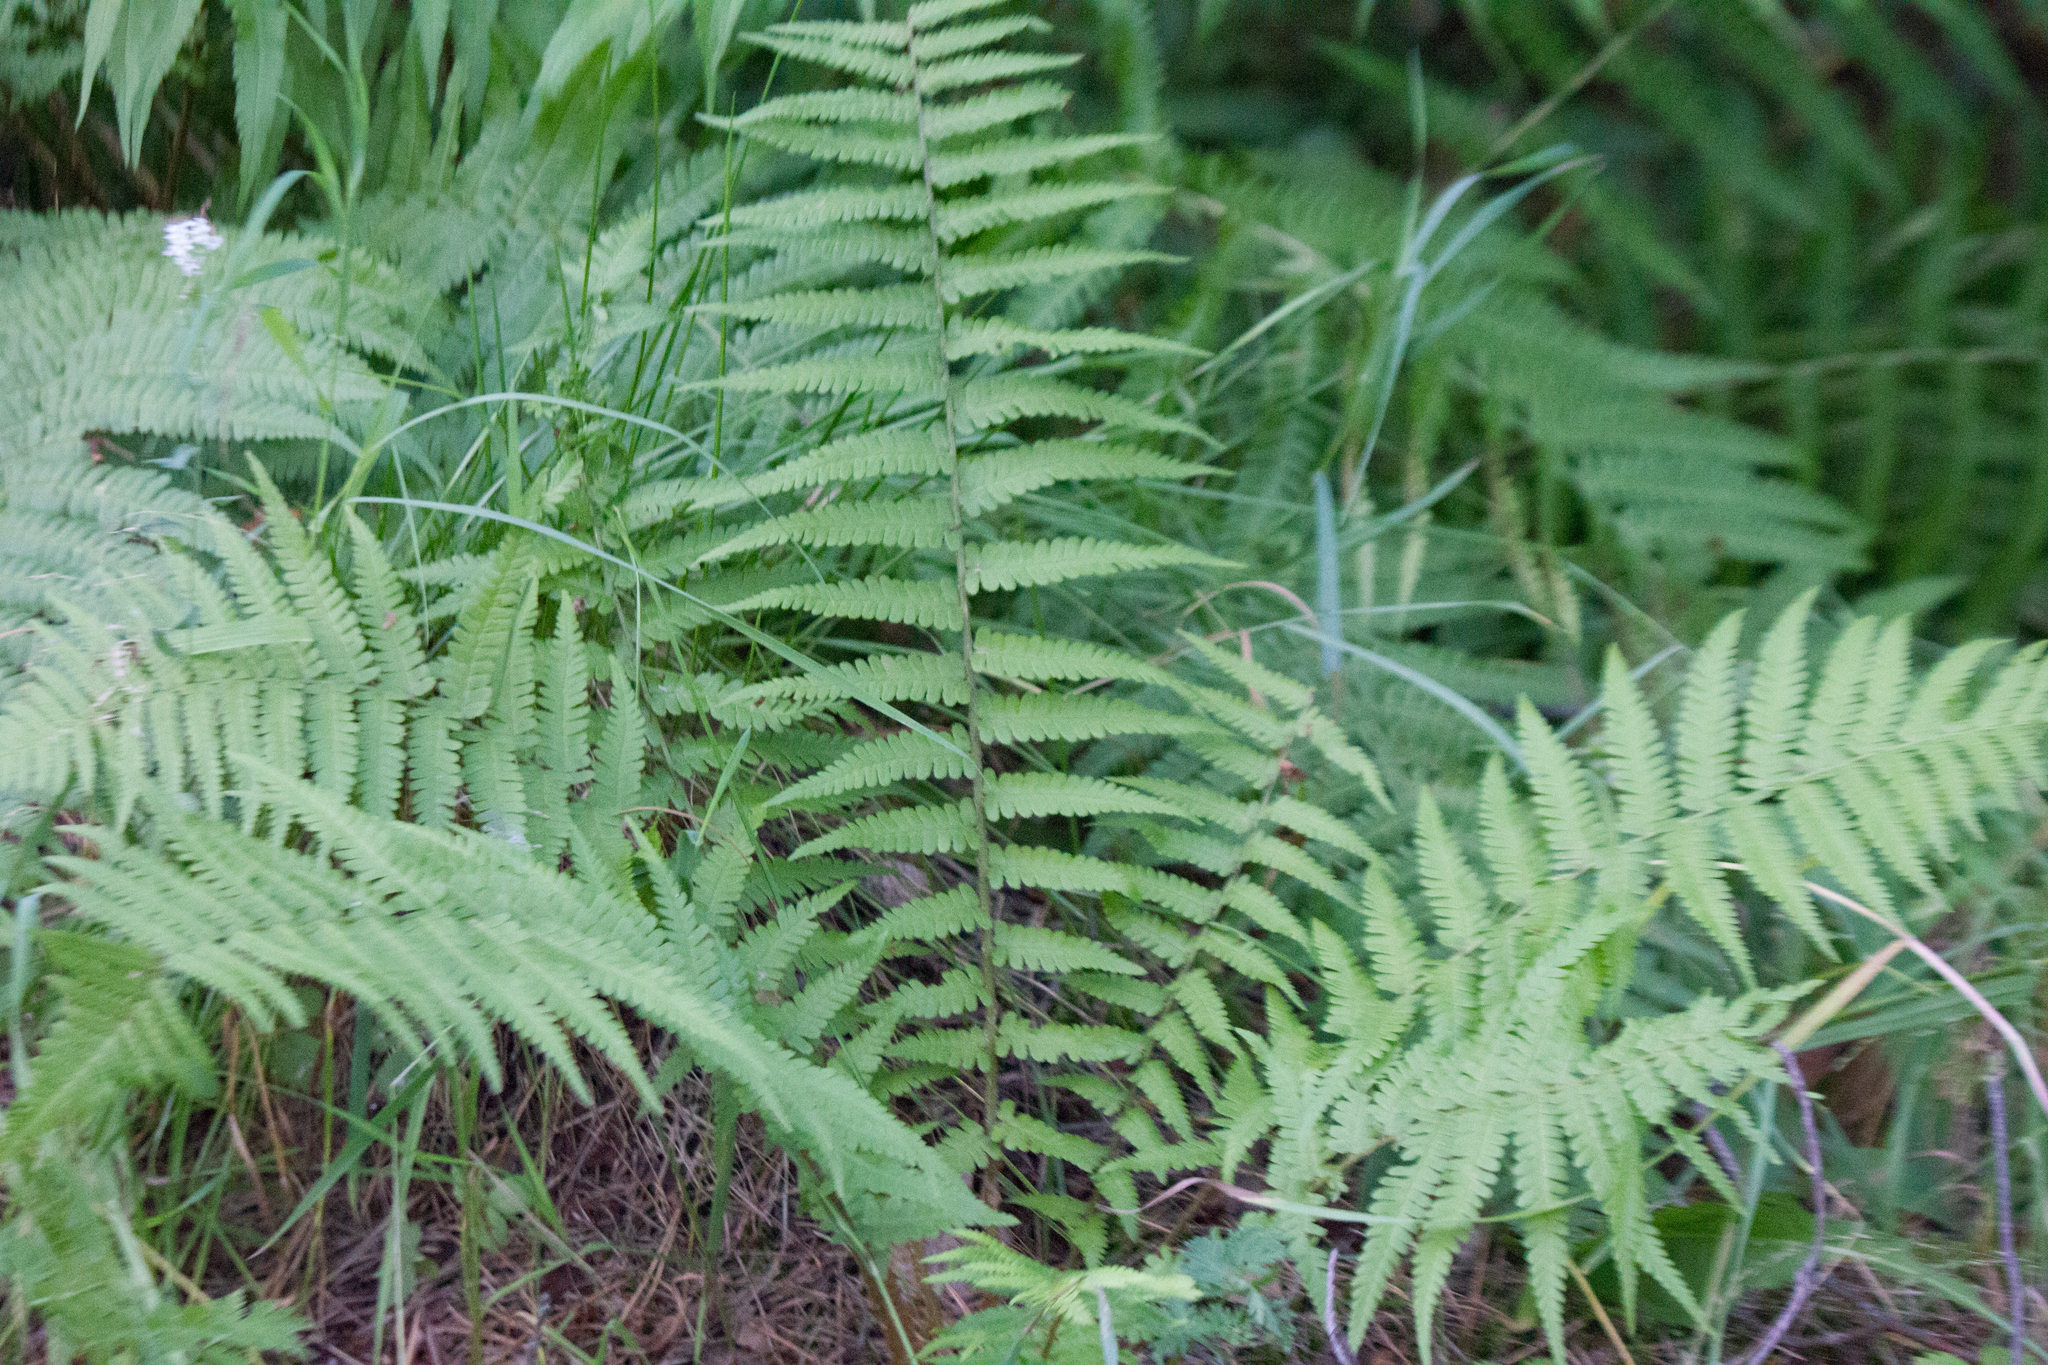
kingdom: Plantae
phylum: Tracheophyta
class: Polypodiopsida
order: Polypodiales
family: Dryopteridaceae
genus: Dryopteris
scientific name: Dryopteris filix-mas
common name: Male fern
